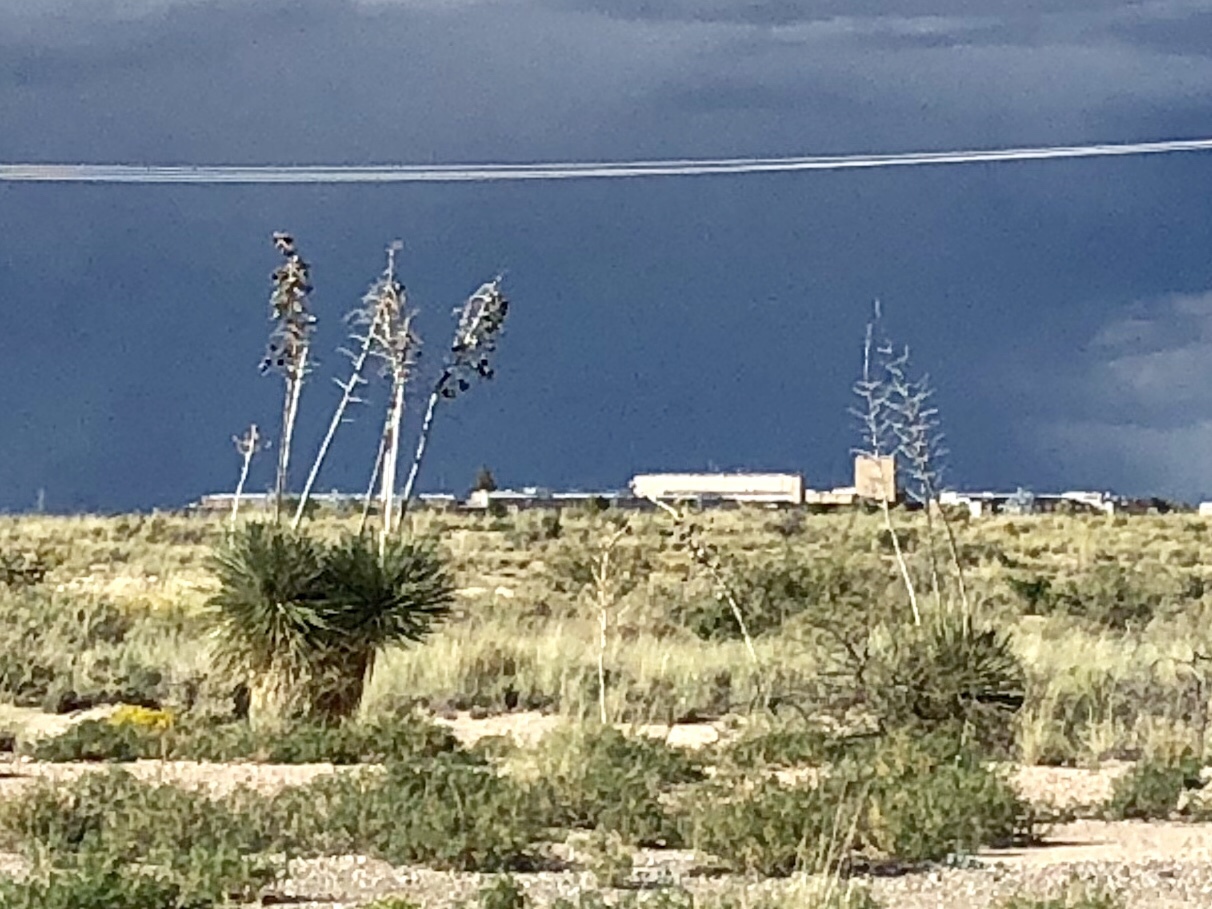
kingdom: Plantae
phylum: Tracheophyta
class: Liliopsida
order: Asparagales
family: Asparagaceae
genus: Yucca
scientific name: Yucca elata
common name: Palmella
